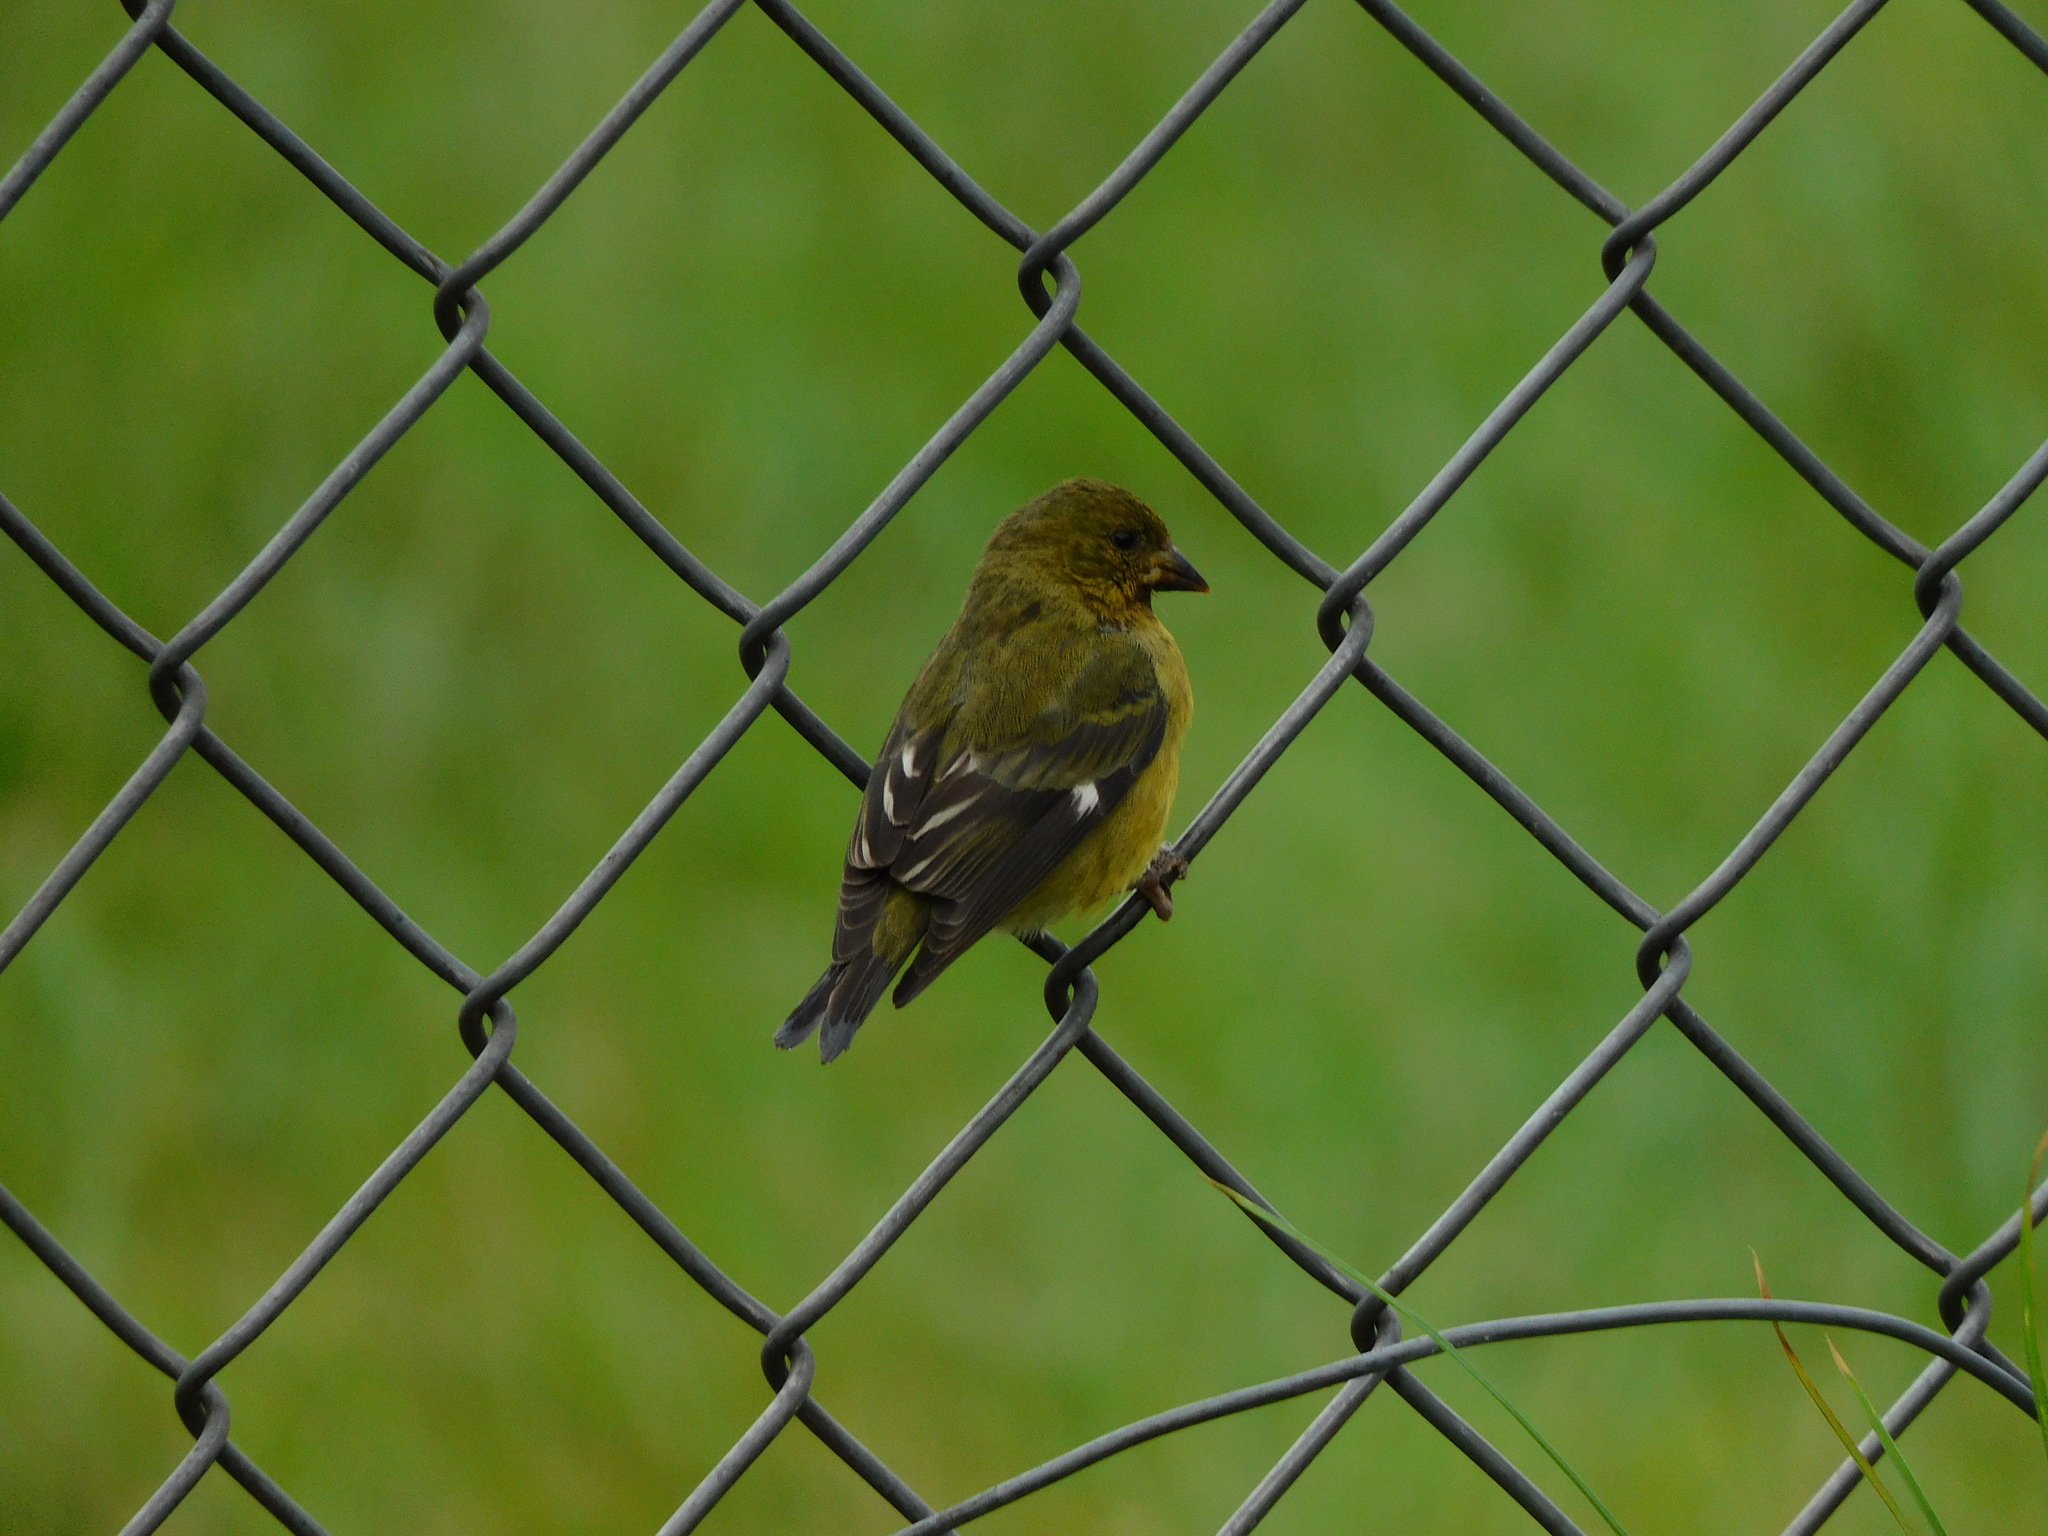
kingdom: Animalia
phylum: Chordata
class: Aves
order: Passeriformes
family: Fringillidae
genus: Spinus
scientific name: Spinus psaltria
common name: Lesser goldfinch
